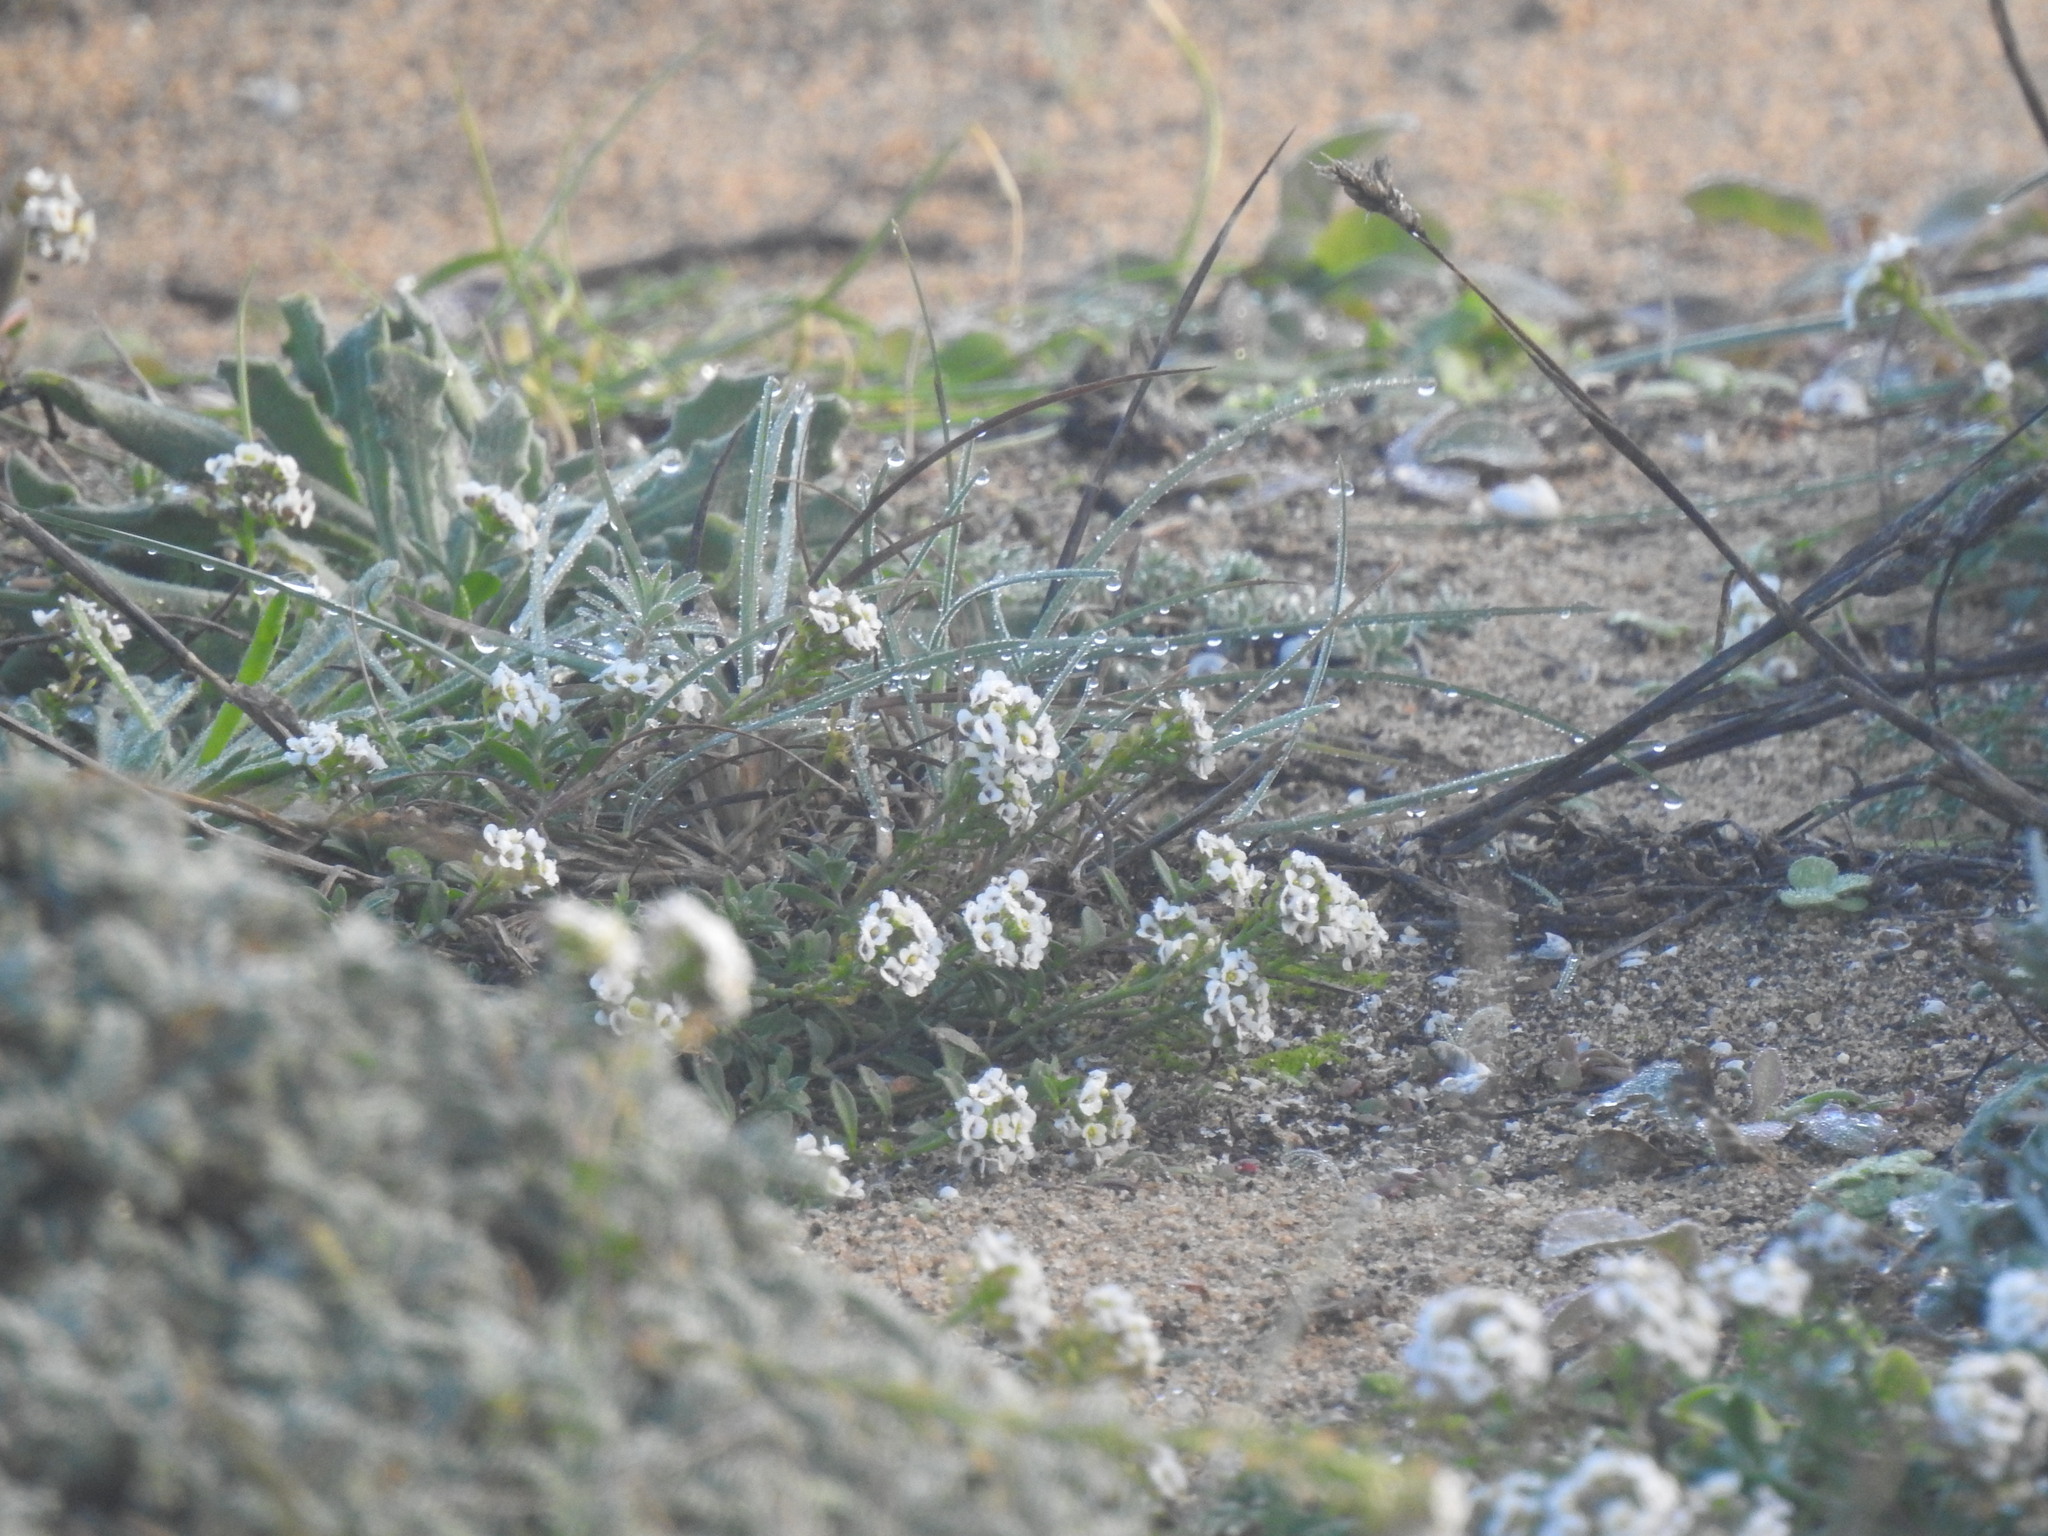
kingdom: Plantae
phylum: Tracheophyta
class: Magnoliopsida
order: Brassicales
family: Brassicaceae
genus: Lobularia
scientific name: Lobularia maritima
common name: Sweet alison
